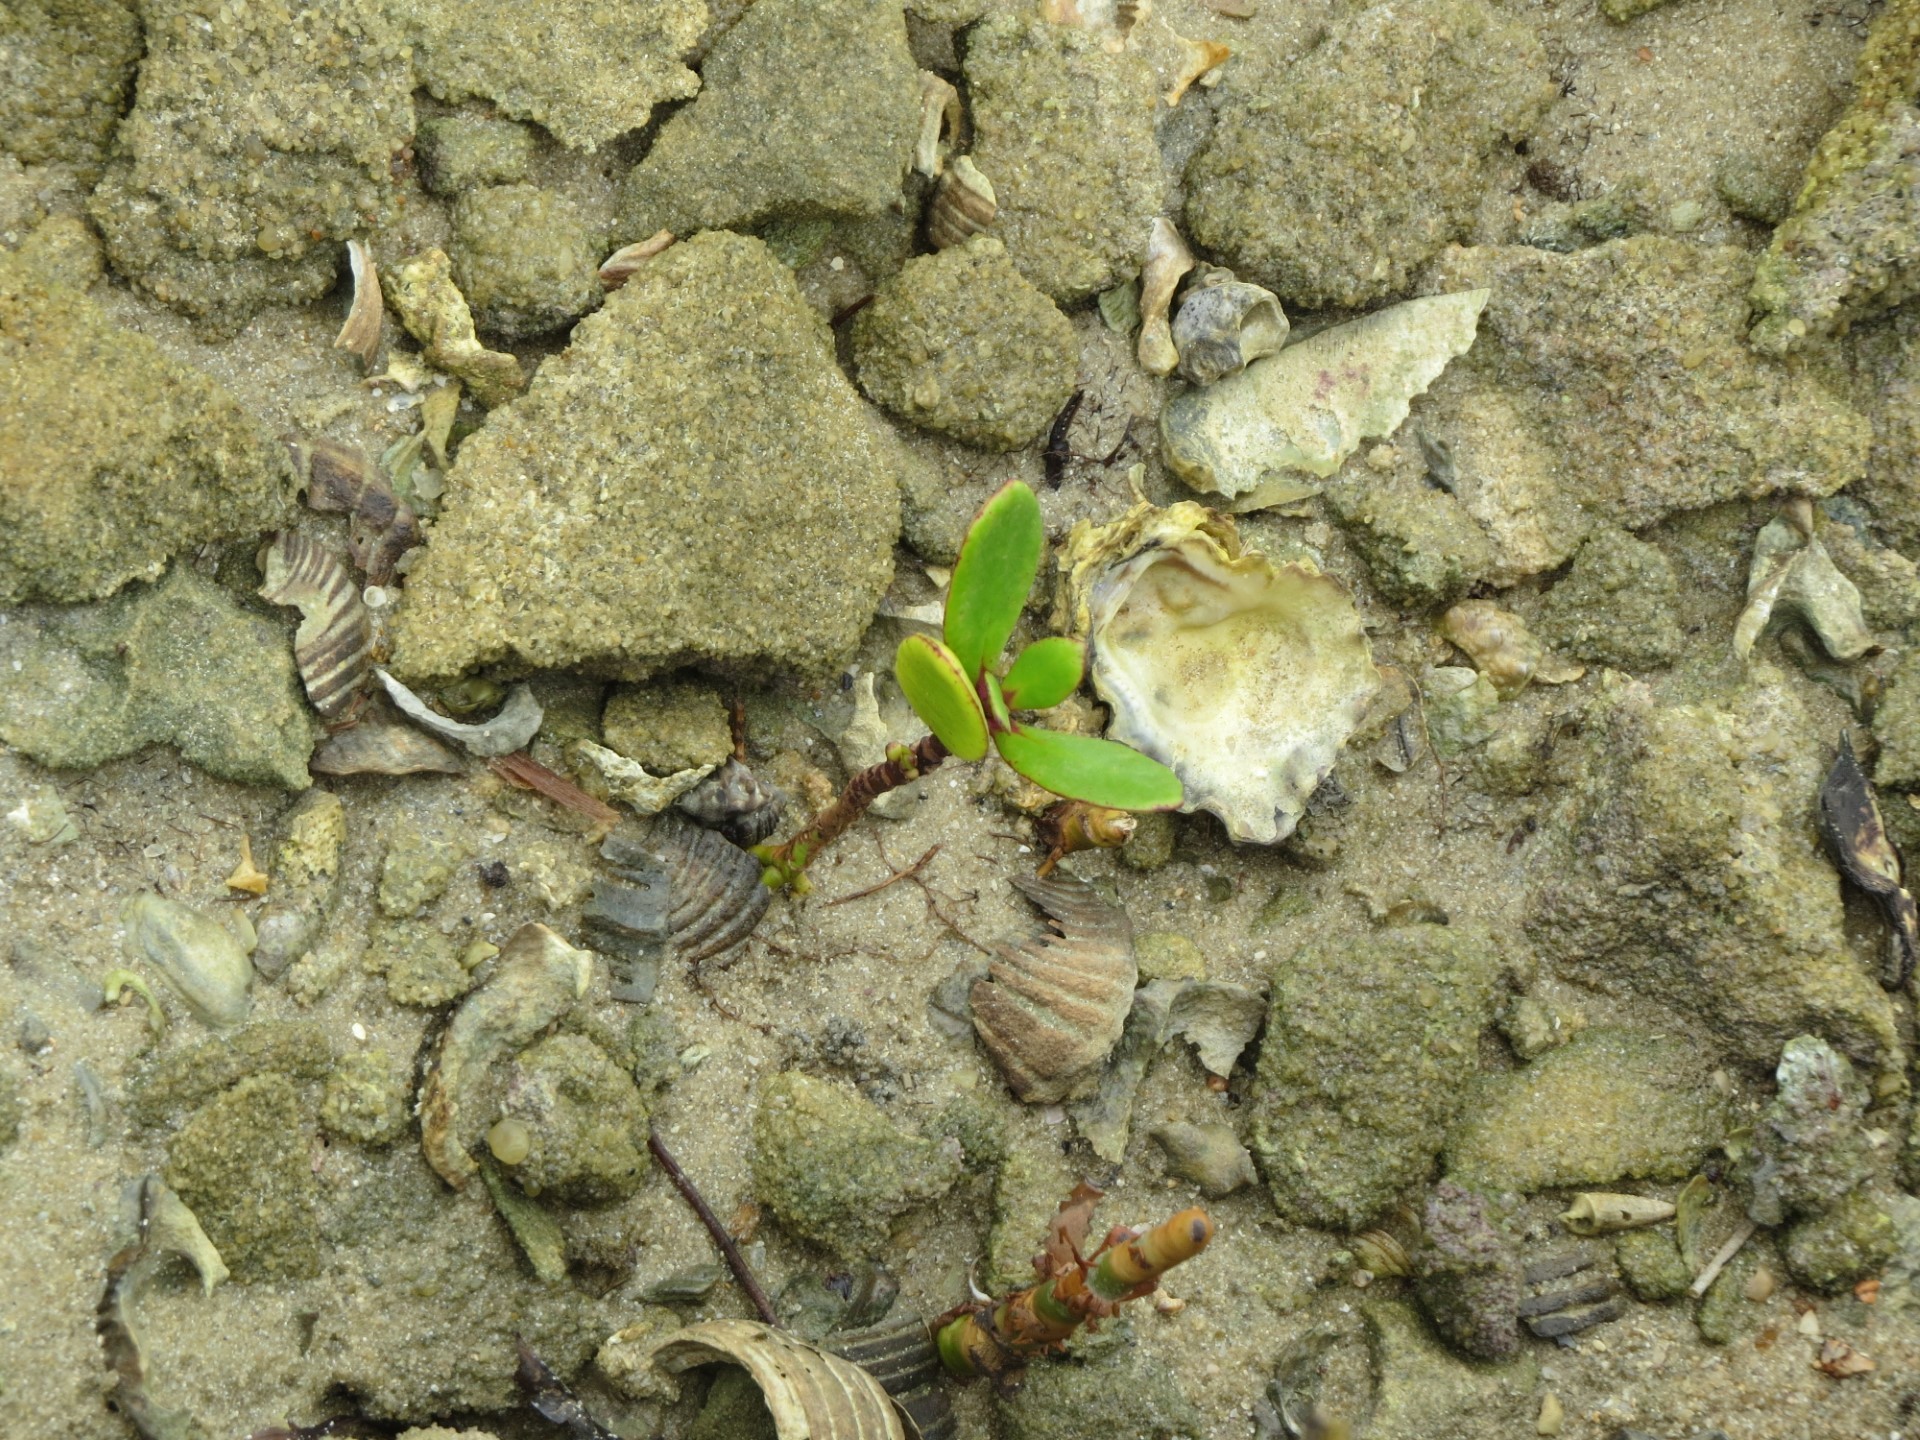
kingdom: Plantae
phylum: Tracheophyta
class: Magnoliopsida
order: Myrtales
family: Combretaceae
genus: Lumnitzera
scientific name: Lumnitzera racemosa
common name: White-flowered black mangrove
